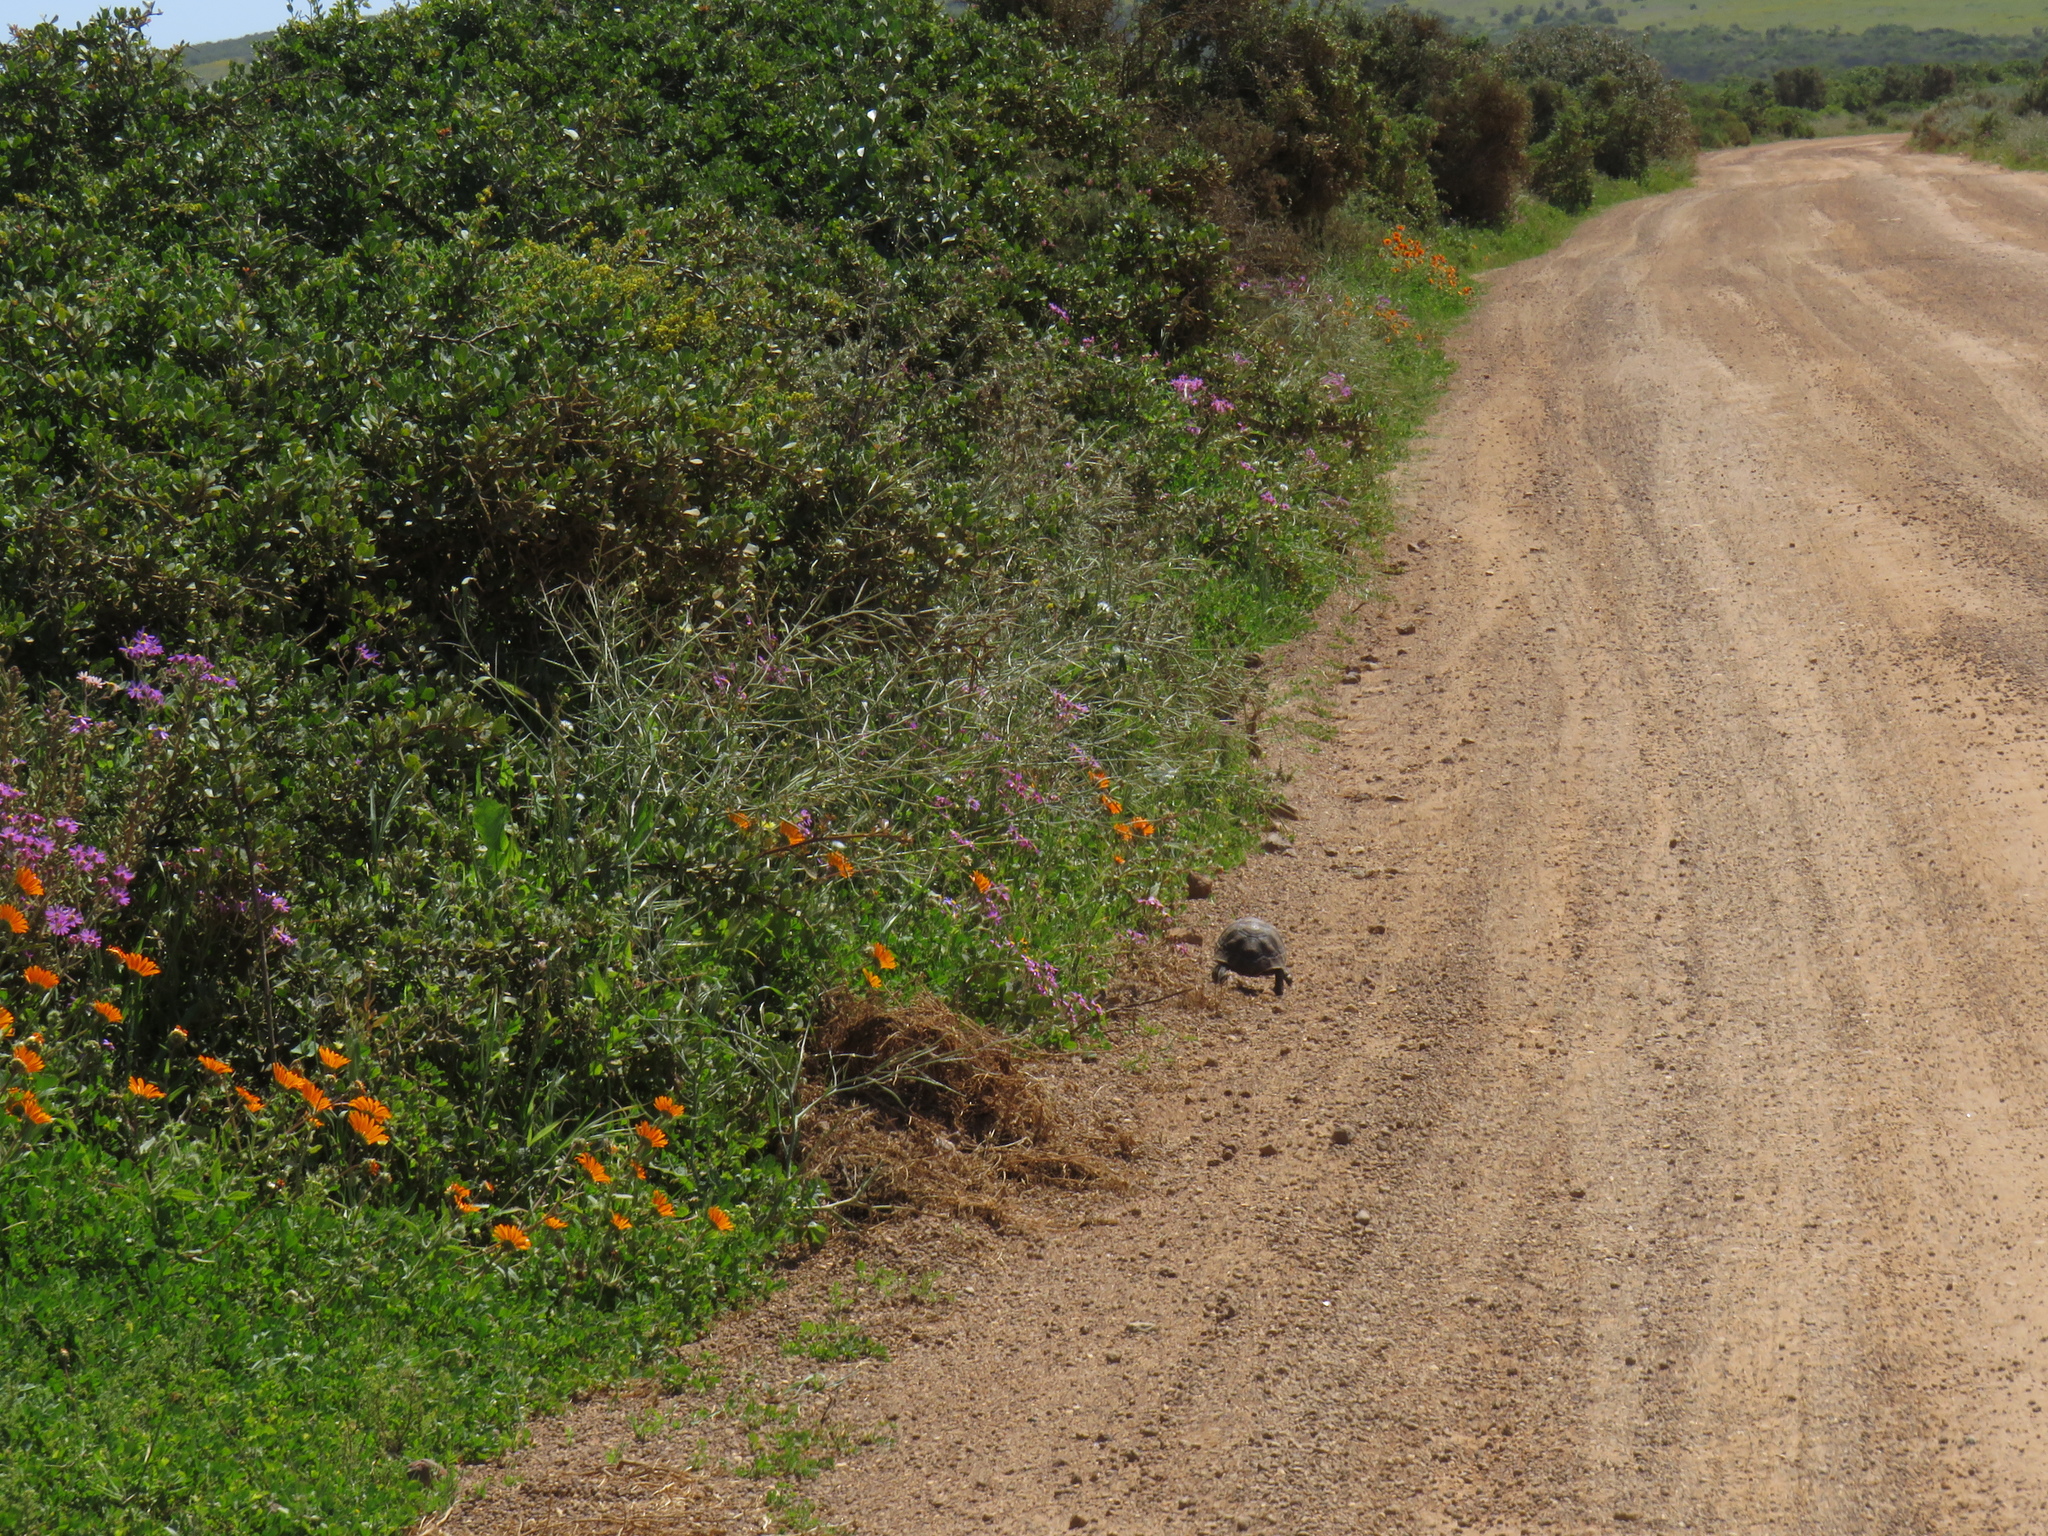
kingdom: Animalia
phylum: Chordata
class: Testudines
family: Testudinidae
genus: Chersina
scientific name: Chersina angulata
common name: South african bowsprit tortoise
